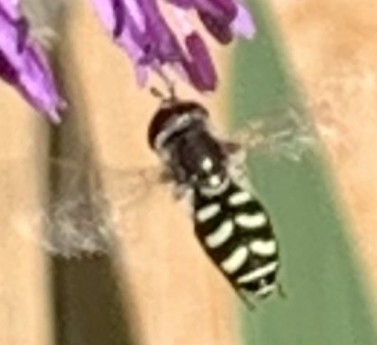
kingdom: Animalia
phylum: Arthropoda
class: Insecta
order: Diptera
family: Syrphidae
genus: Eupeodes
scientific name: Eupeodes volucris
